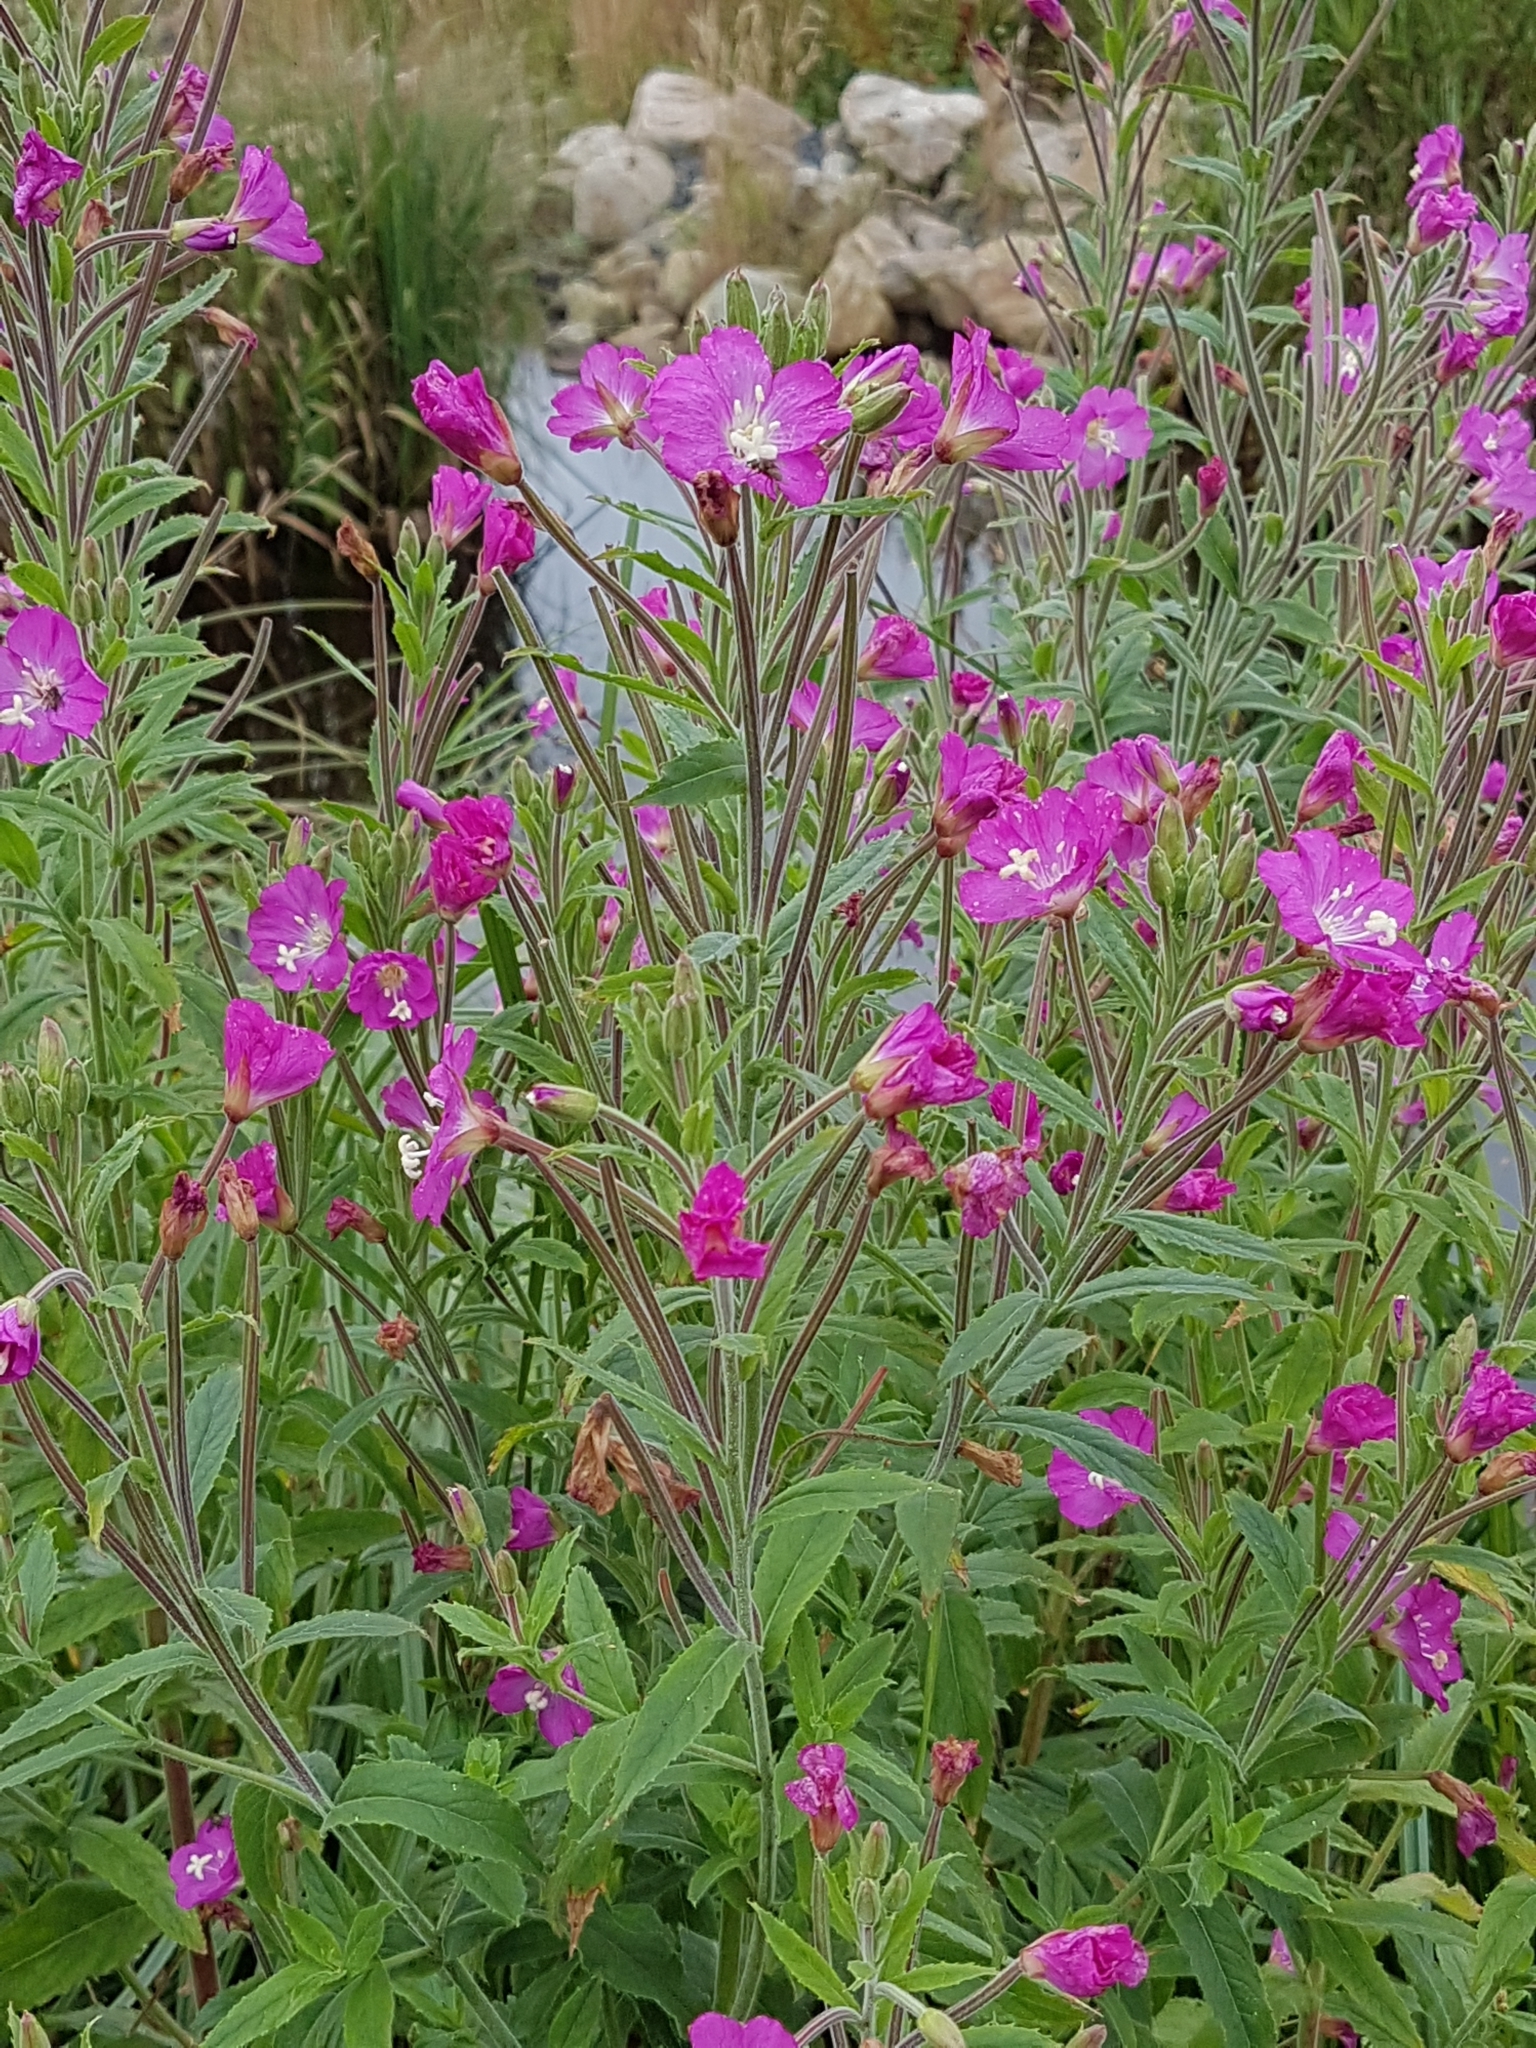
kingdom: Plantae
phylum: Tracheophyta
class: Magnoliopsida
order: Myrtales
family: Onagraceae
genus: Epilobium
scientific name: Epilobium hirsutum
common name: Great willowherb
